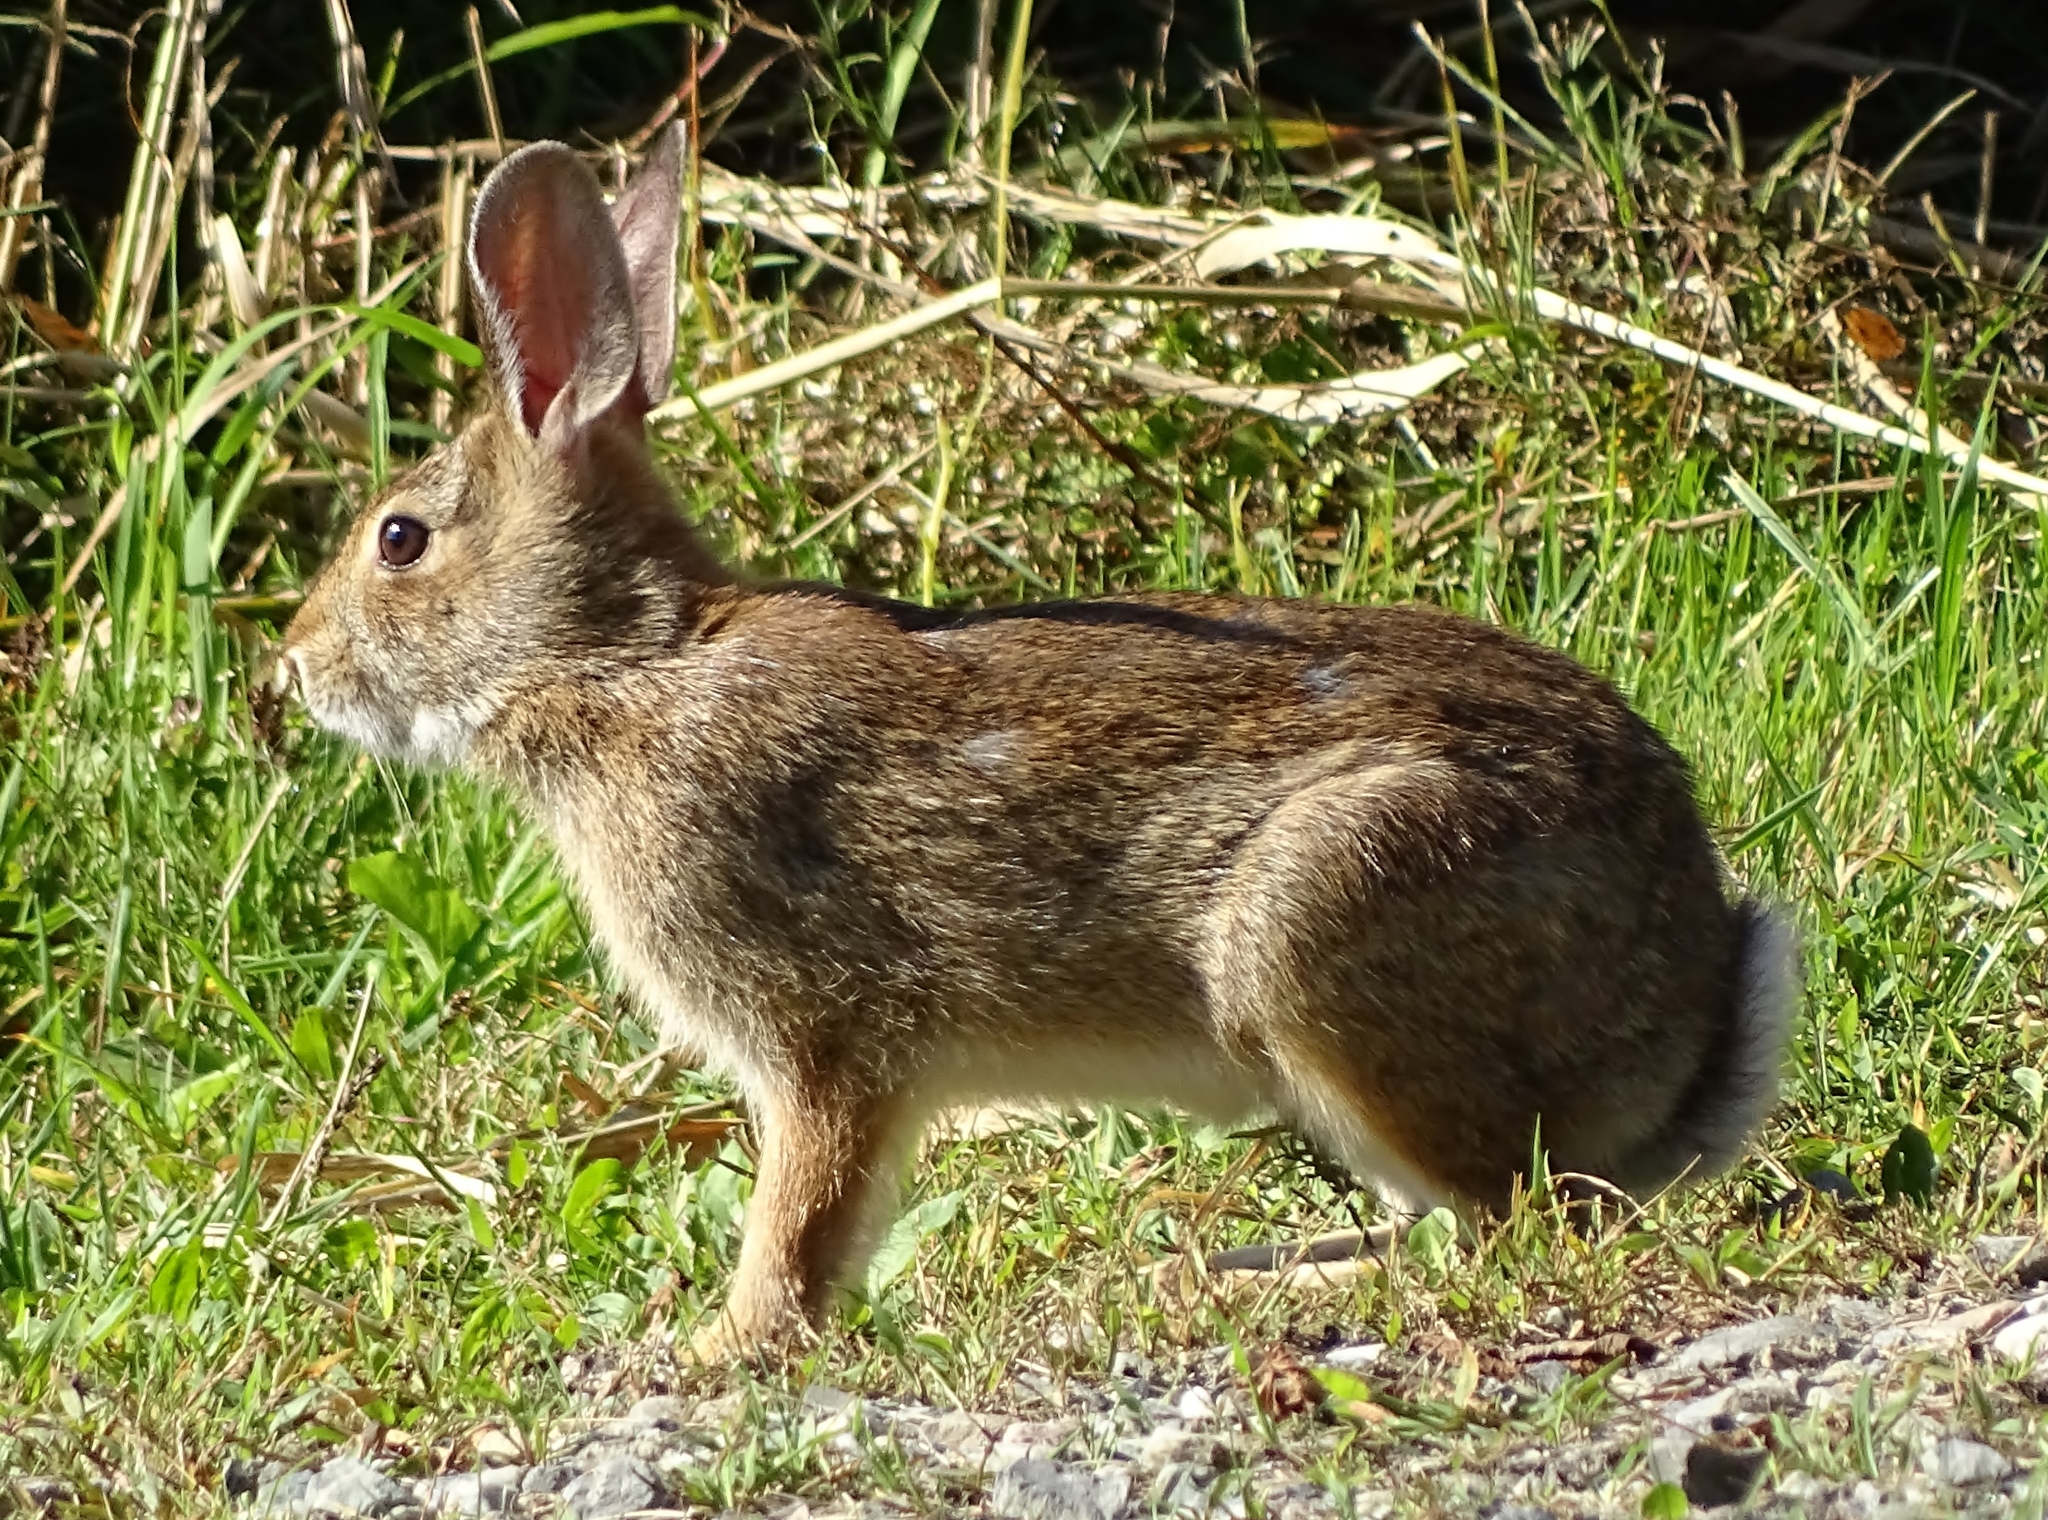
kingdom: Animalia
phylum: Chordata
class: Mammalia
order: Lagomorpha
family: Leporidae
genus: Sylvilagus
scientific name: Sylvilagus floridanus
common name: Eastern cottontail
